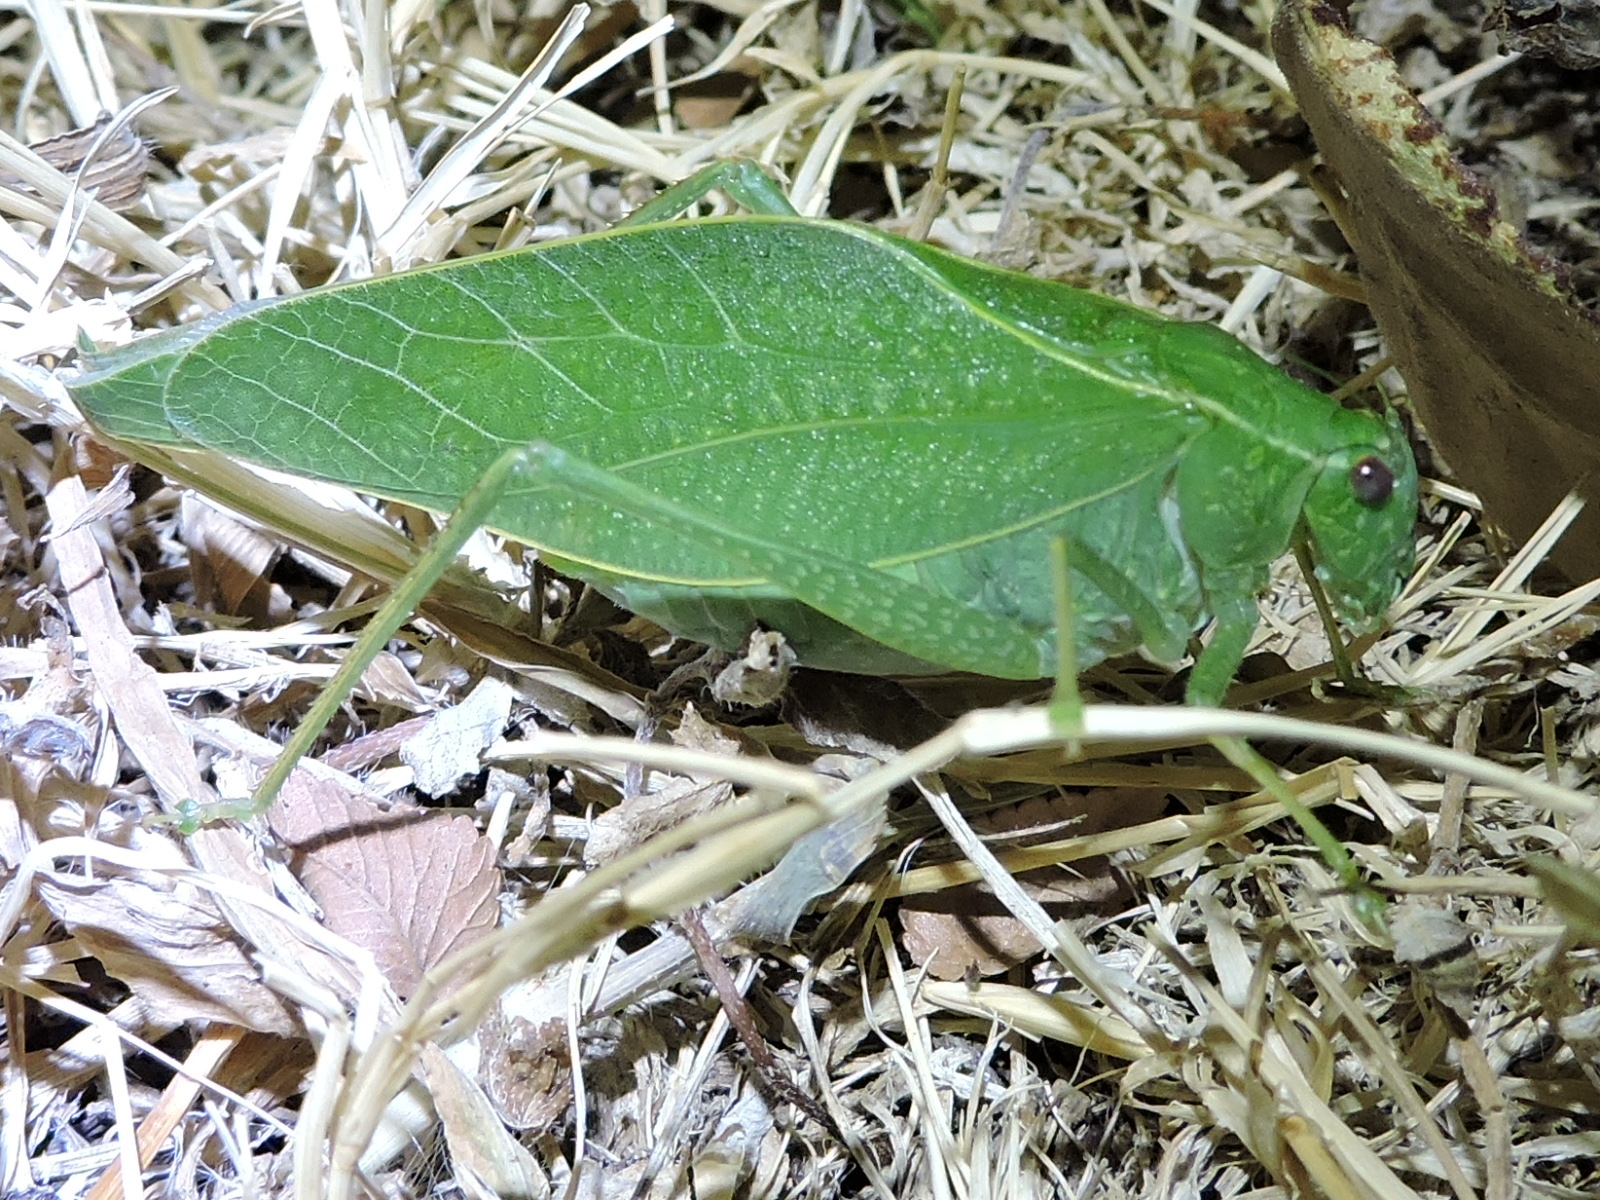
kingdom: Animalia
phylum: Arthropoda
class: Insecta
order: Orthoptera
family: Tettigoniidae
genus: Microcentrum
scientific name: Microcentrum rhombifolium
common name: Broad-winged katydid
